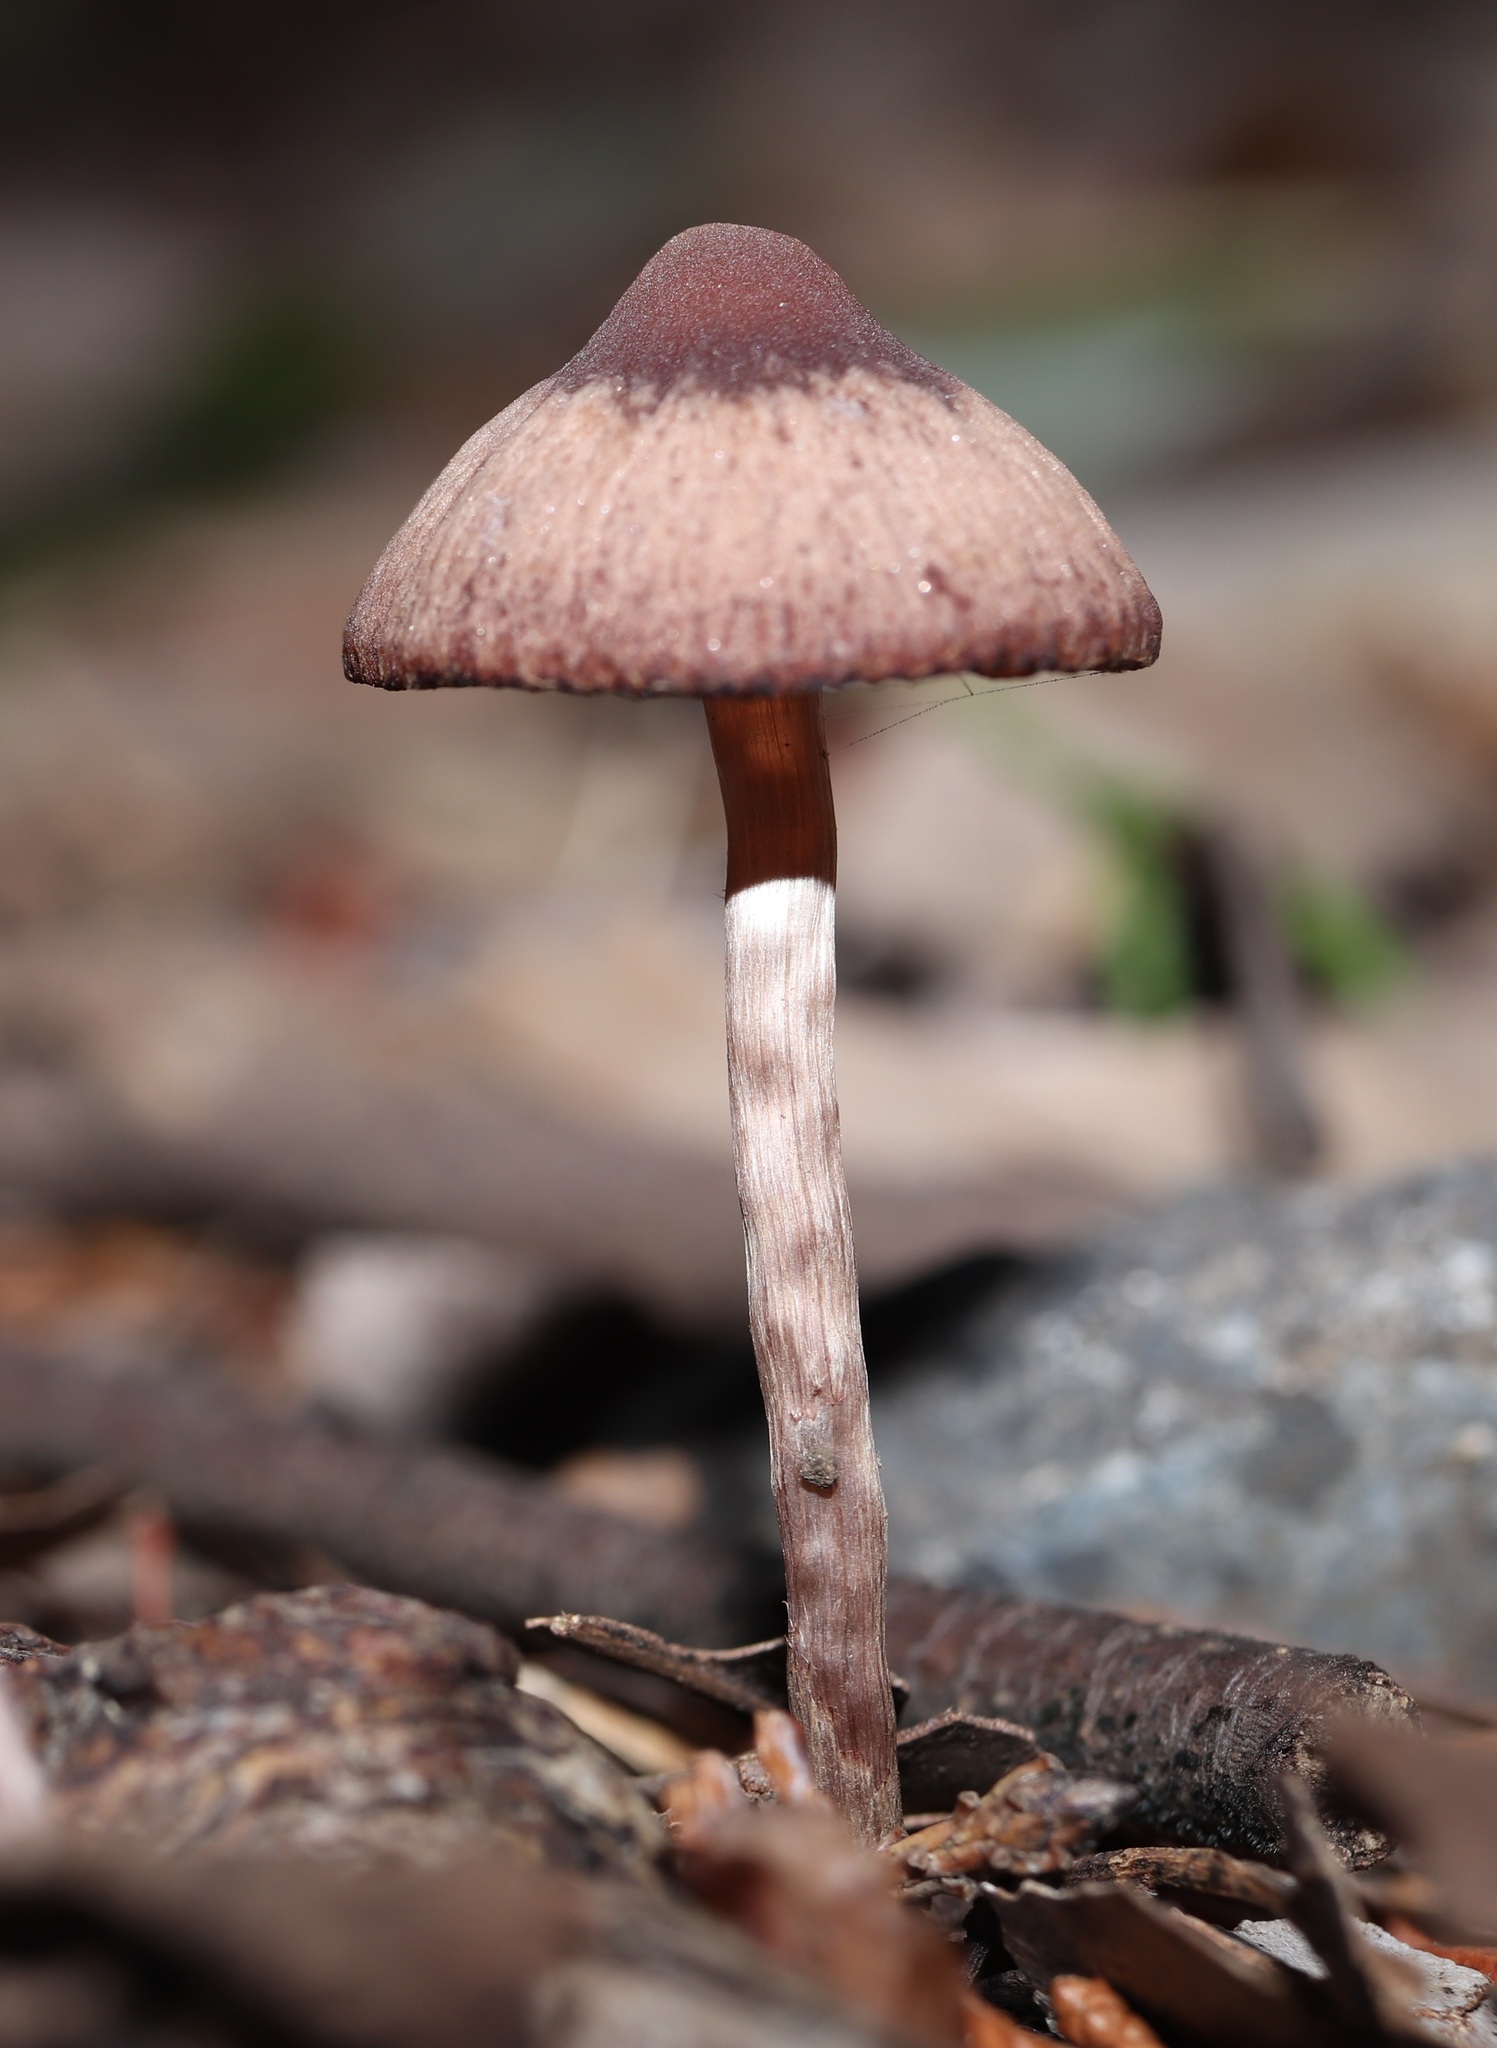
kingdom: Fungi
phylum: Basidiomycota
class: Agaricomycetes
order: Agaricales
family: Psathyrellaceae
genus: Psathyrella
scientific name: Psathyrella bipellis
